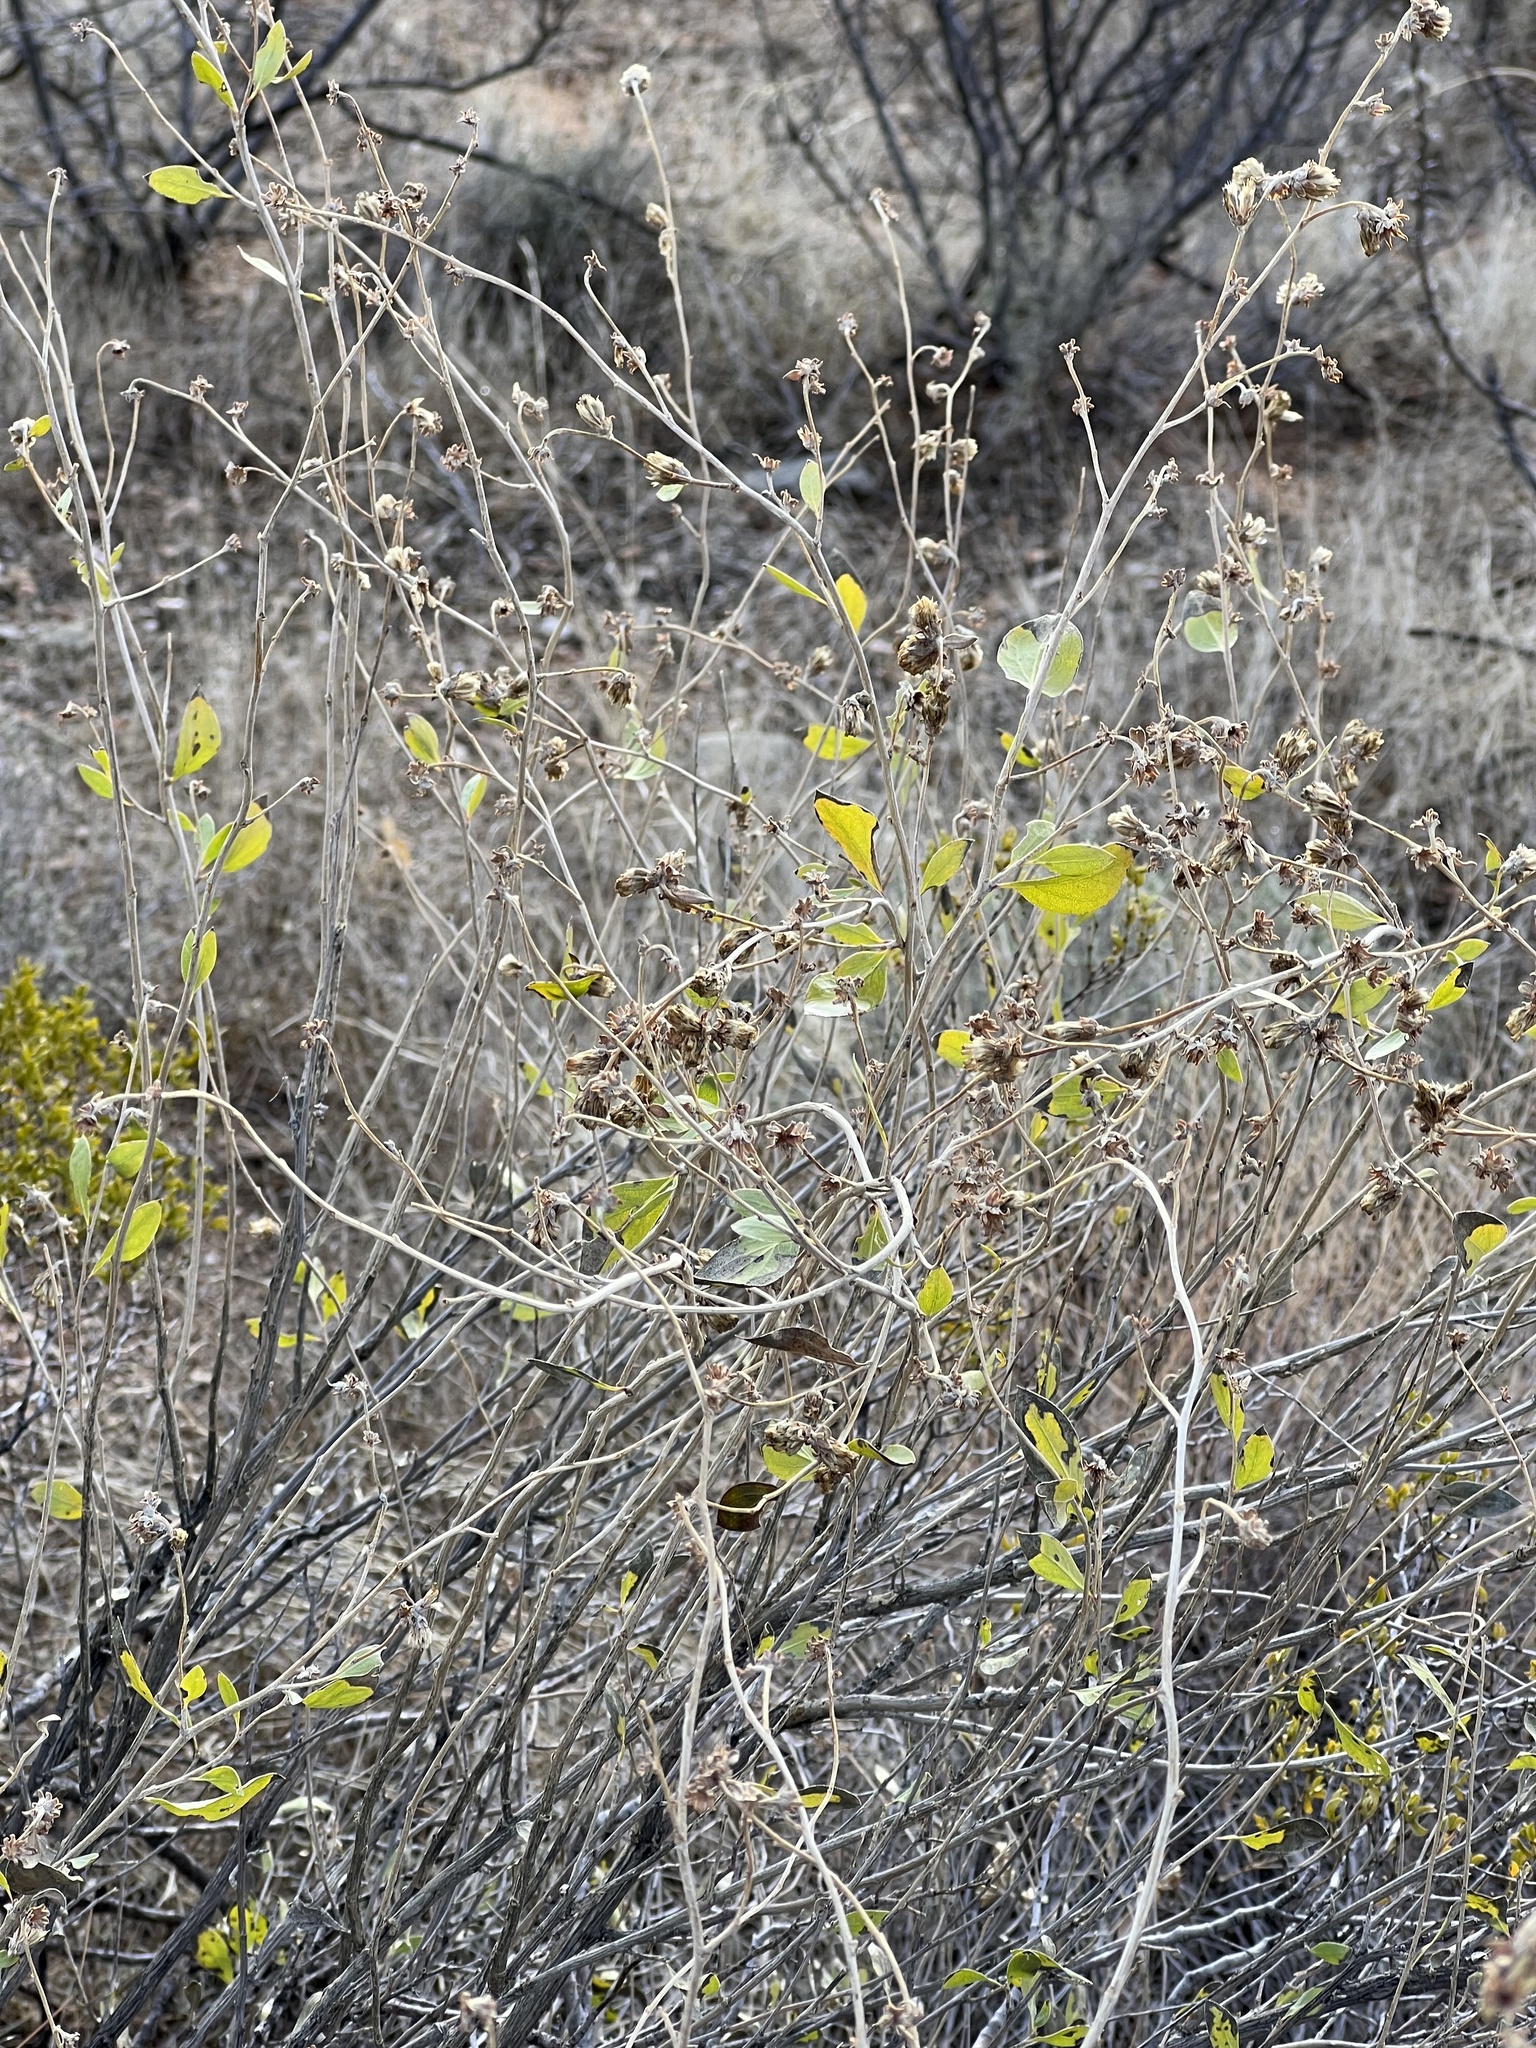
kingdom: Plantae
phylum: Tracheophyta
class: Magnoliopsida
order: Asterales
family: Asteraceae
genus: Flourensia
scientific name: Flourensia cernua
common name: Varnishbush
